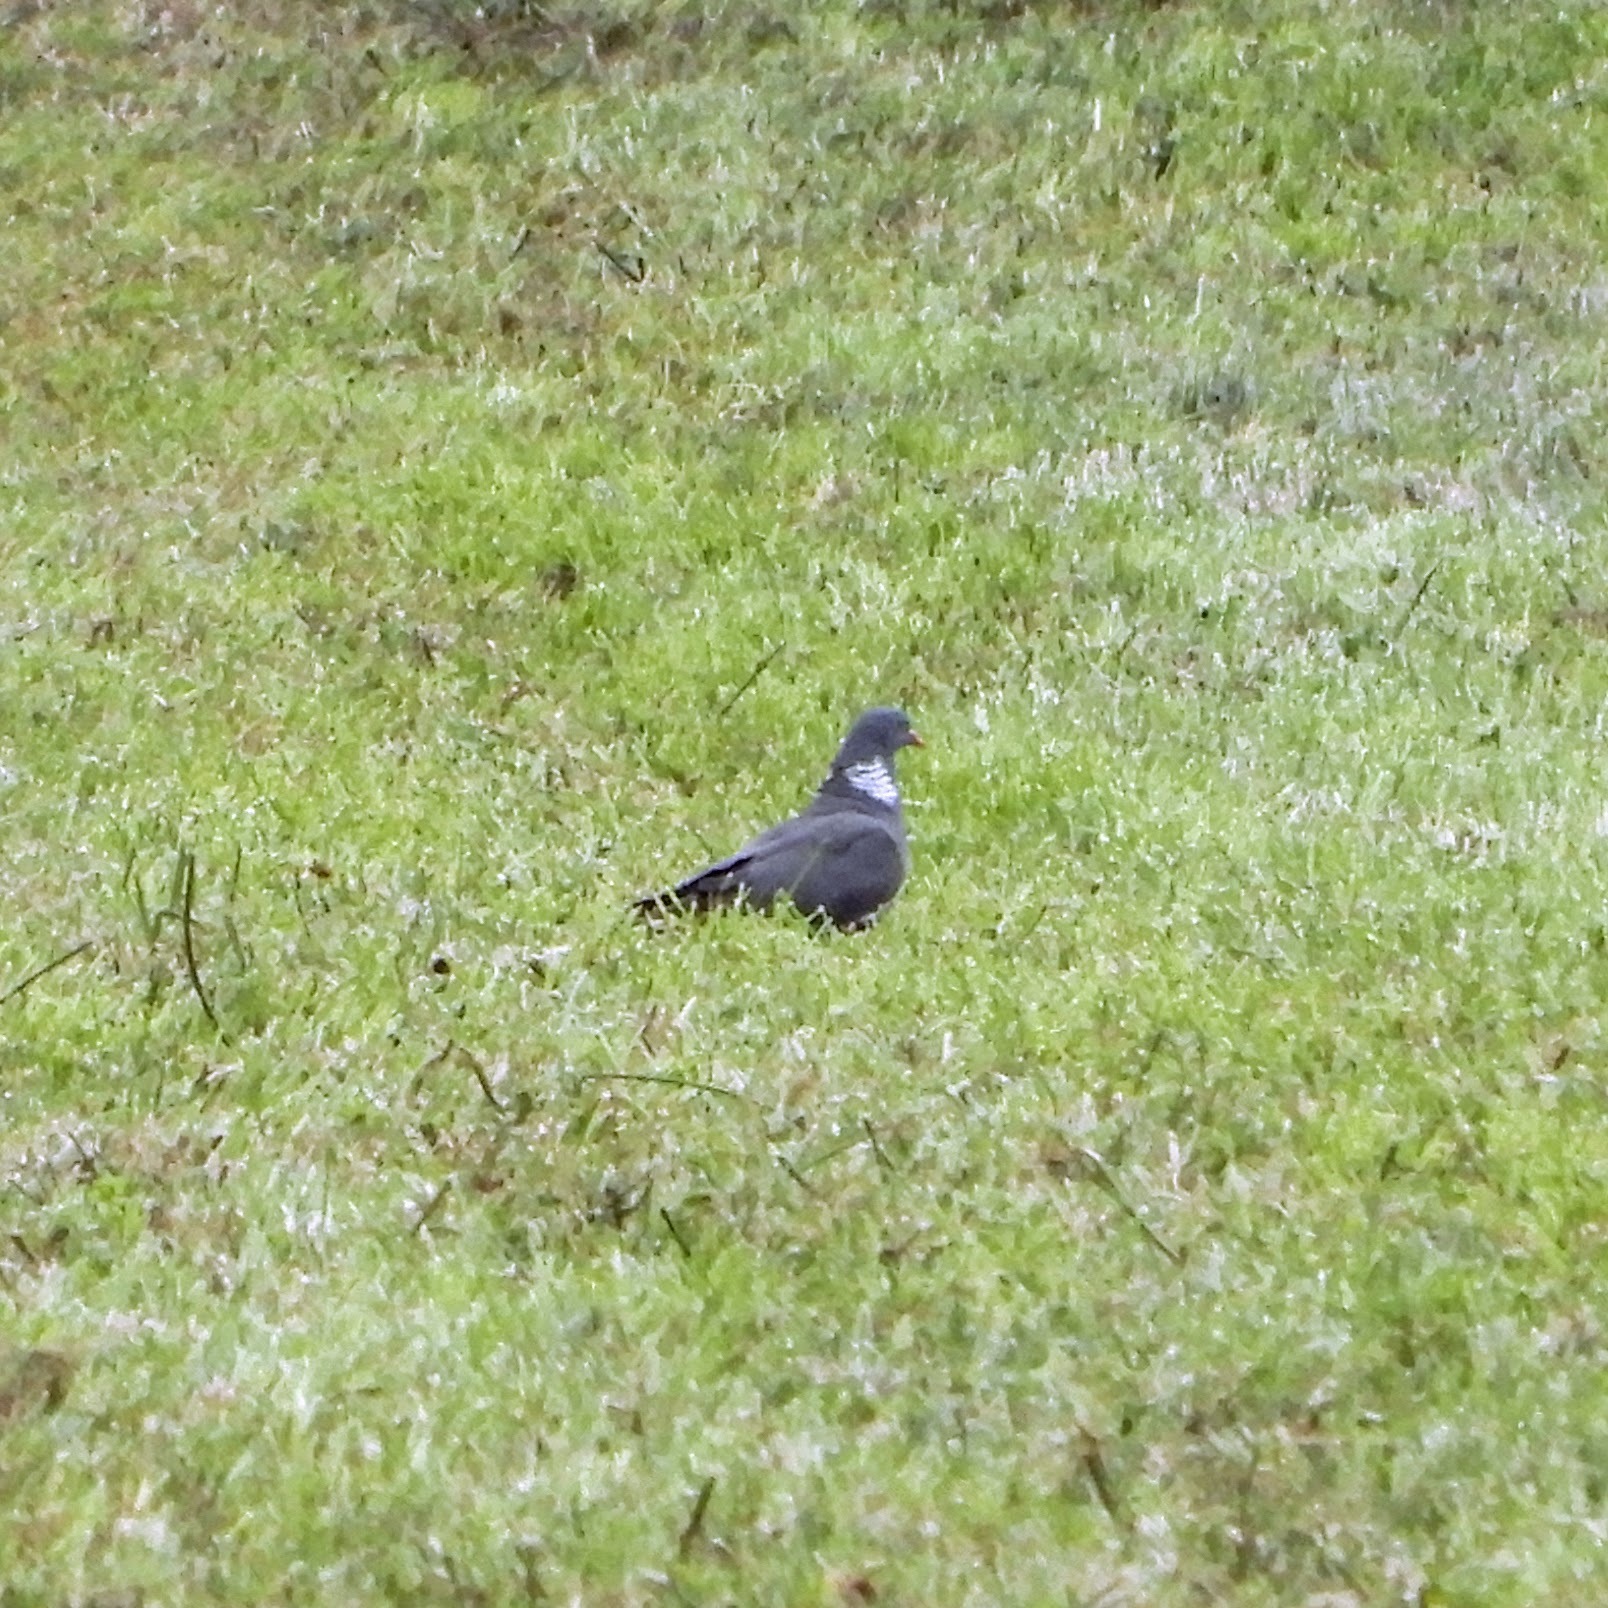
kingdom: Animalia
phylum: Chordata
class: Aves
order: Columbiformes
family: Columbidae
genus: Columba
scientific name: Columba palumbus
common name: Common wood pigeon
